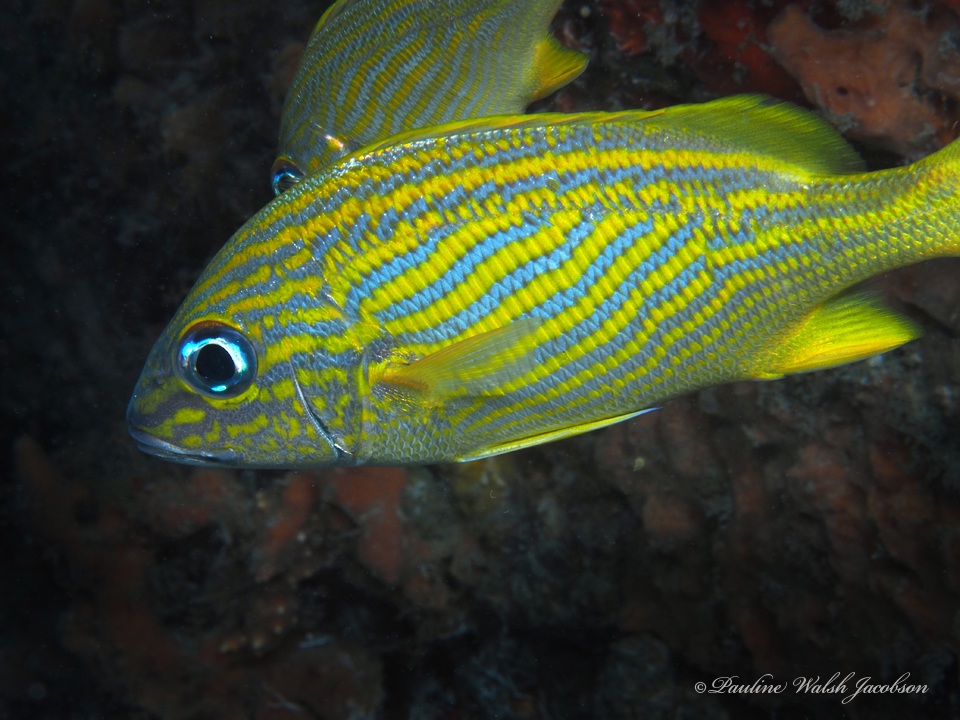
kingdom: Animalia
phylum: Chordata
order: Perciformes
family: Haemulidae
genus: Haemulon
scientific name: Haemulon flavolineatum
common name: French grunt
